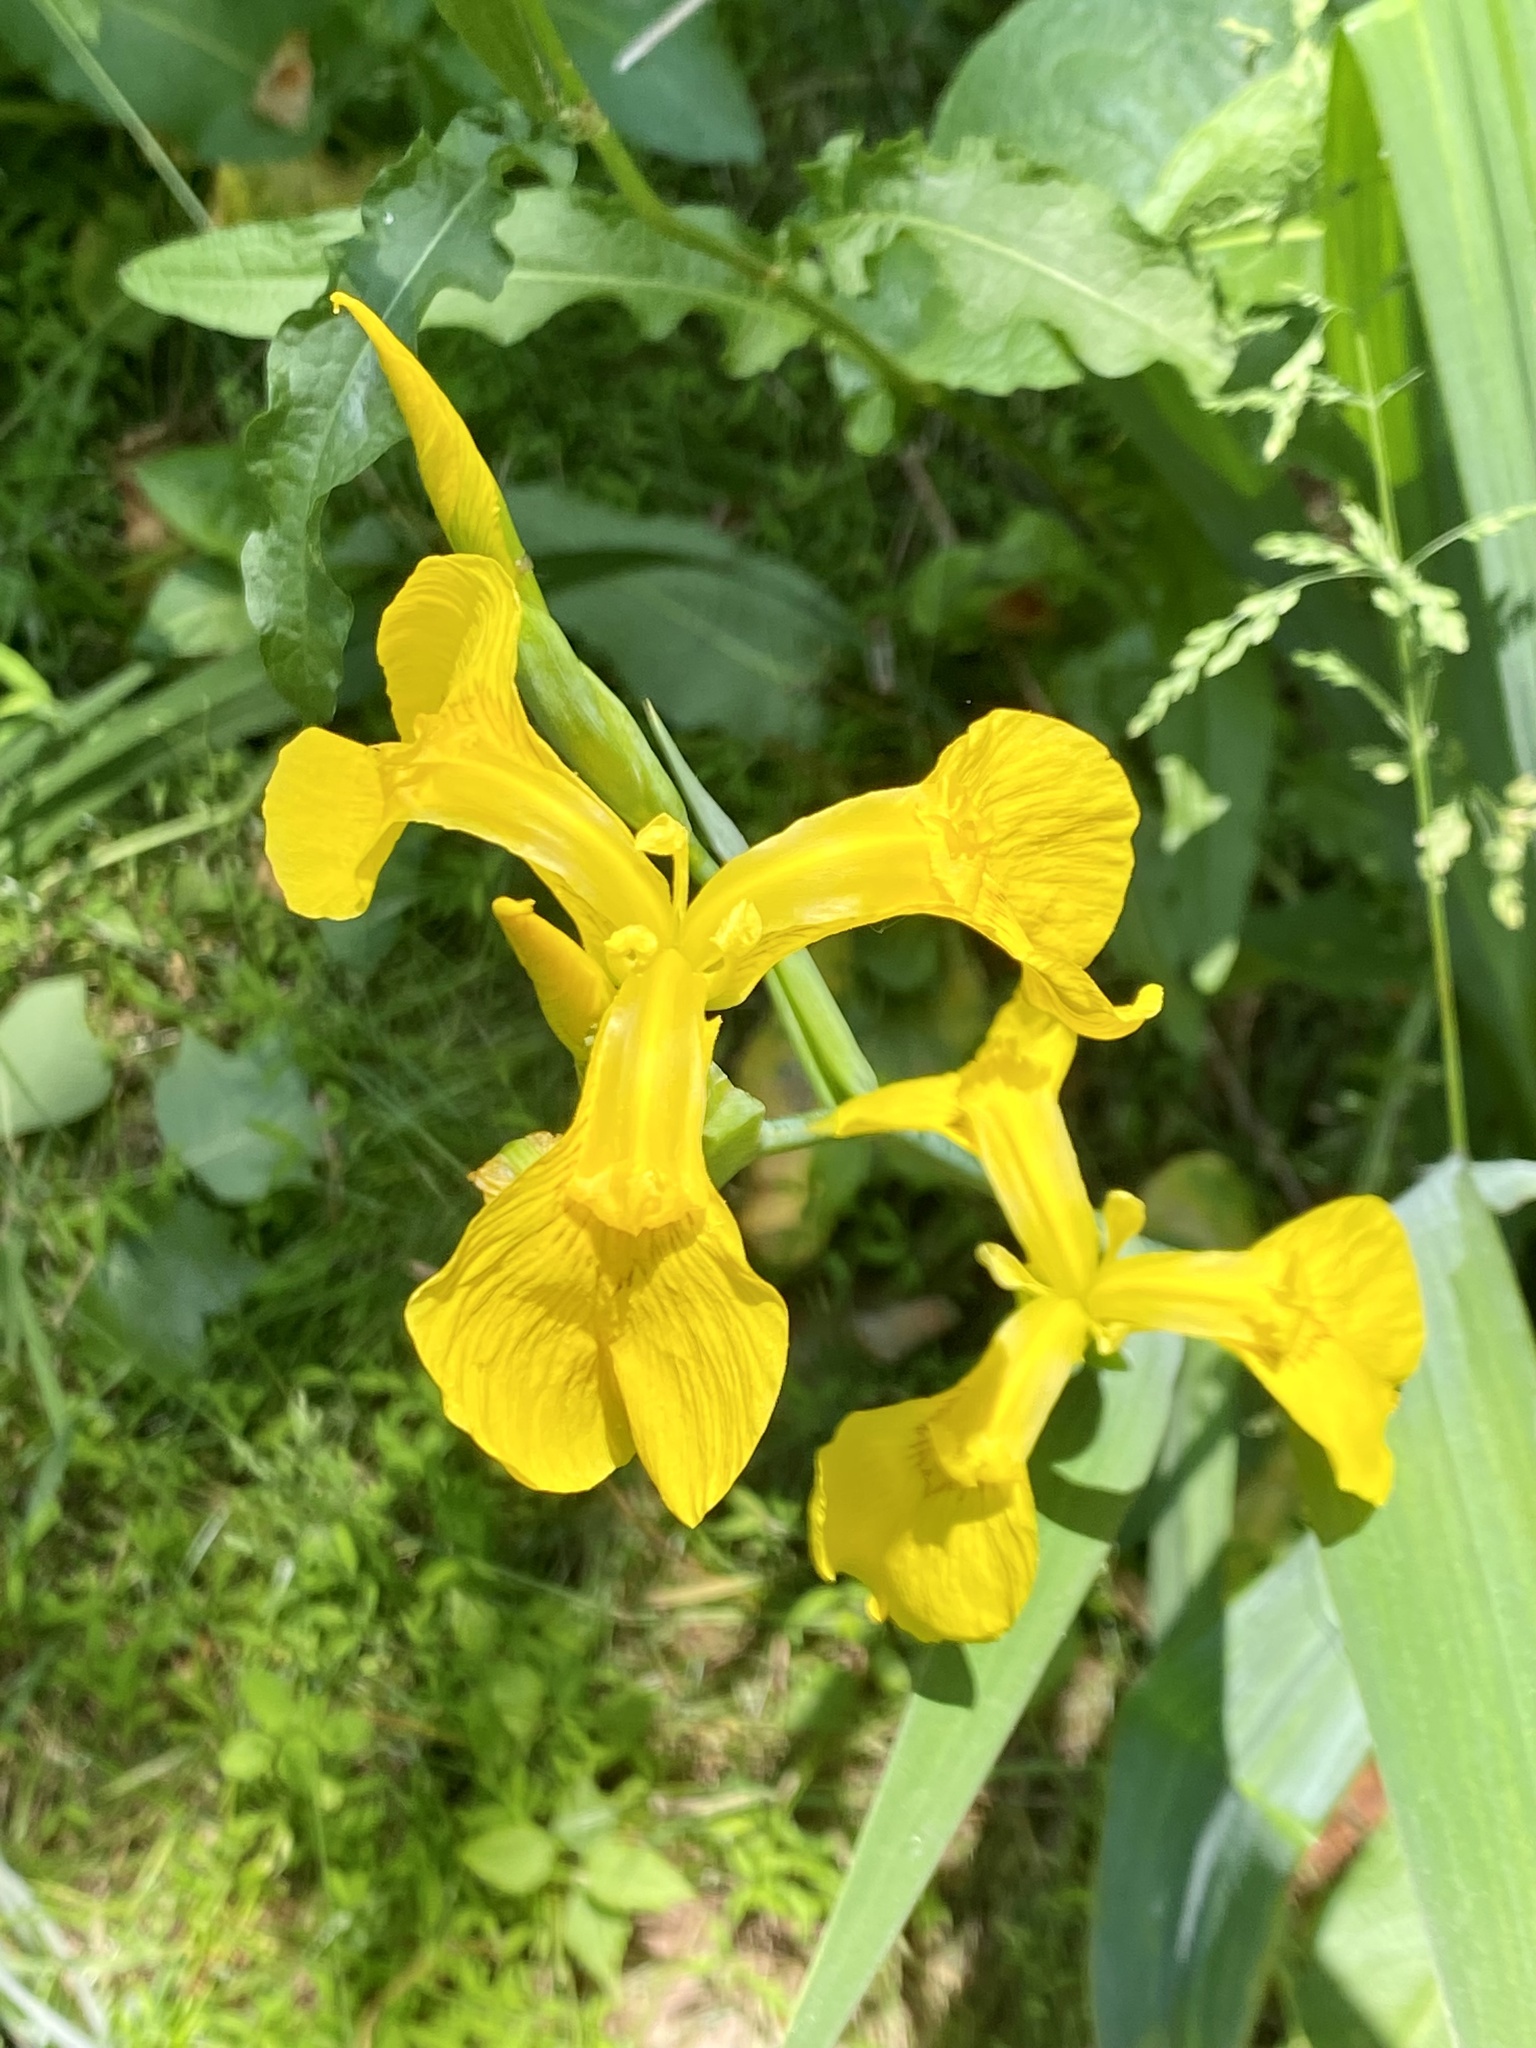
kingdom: Plantae
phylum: Tracheophyta
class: Liliopsida
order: Asparagales
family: Iridaceae
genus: Iris
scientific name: Iris pseudacorus
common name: Yellow flag
